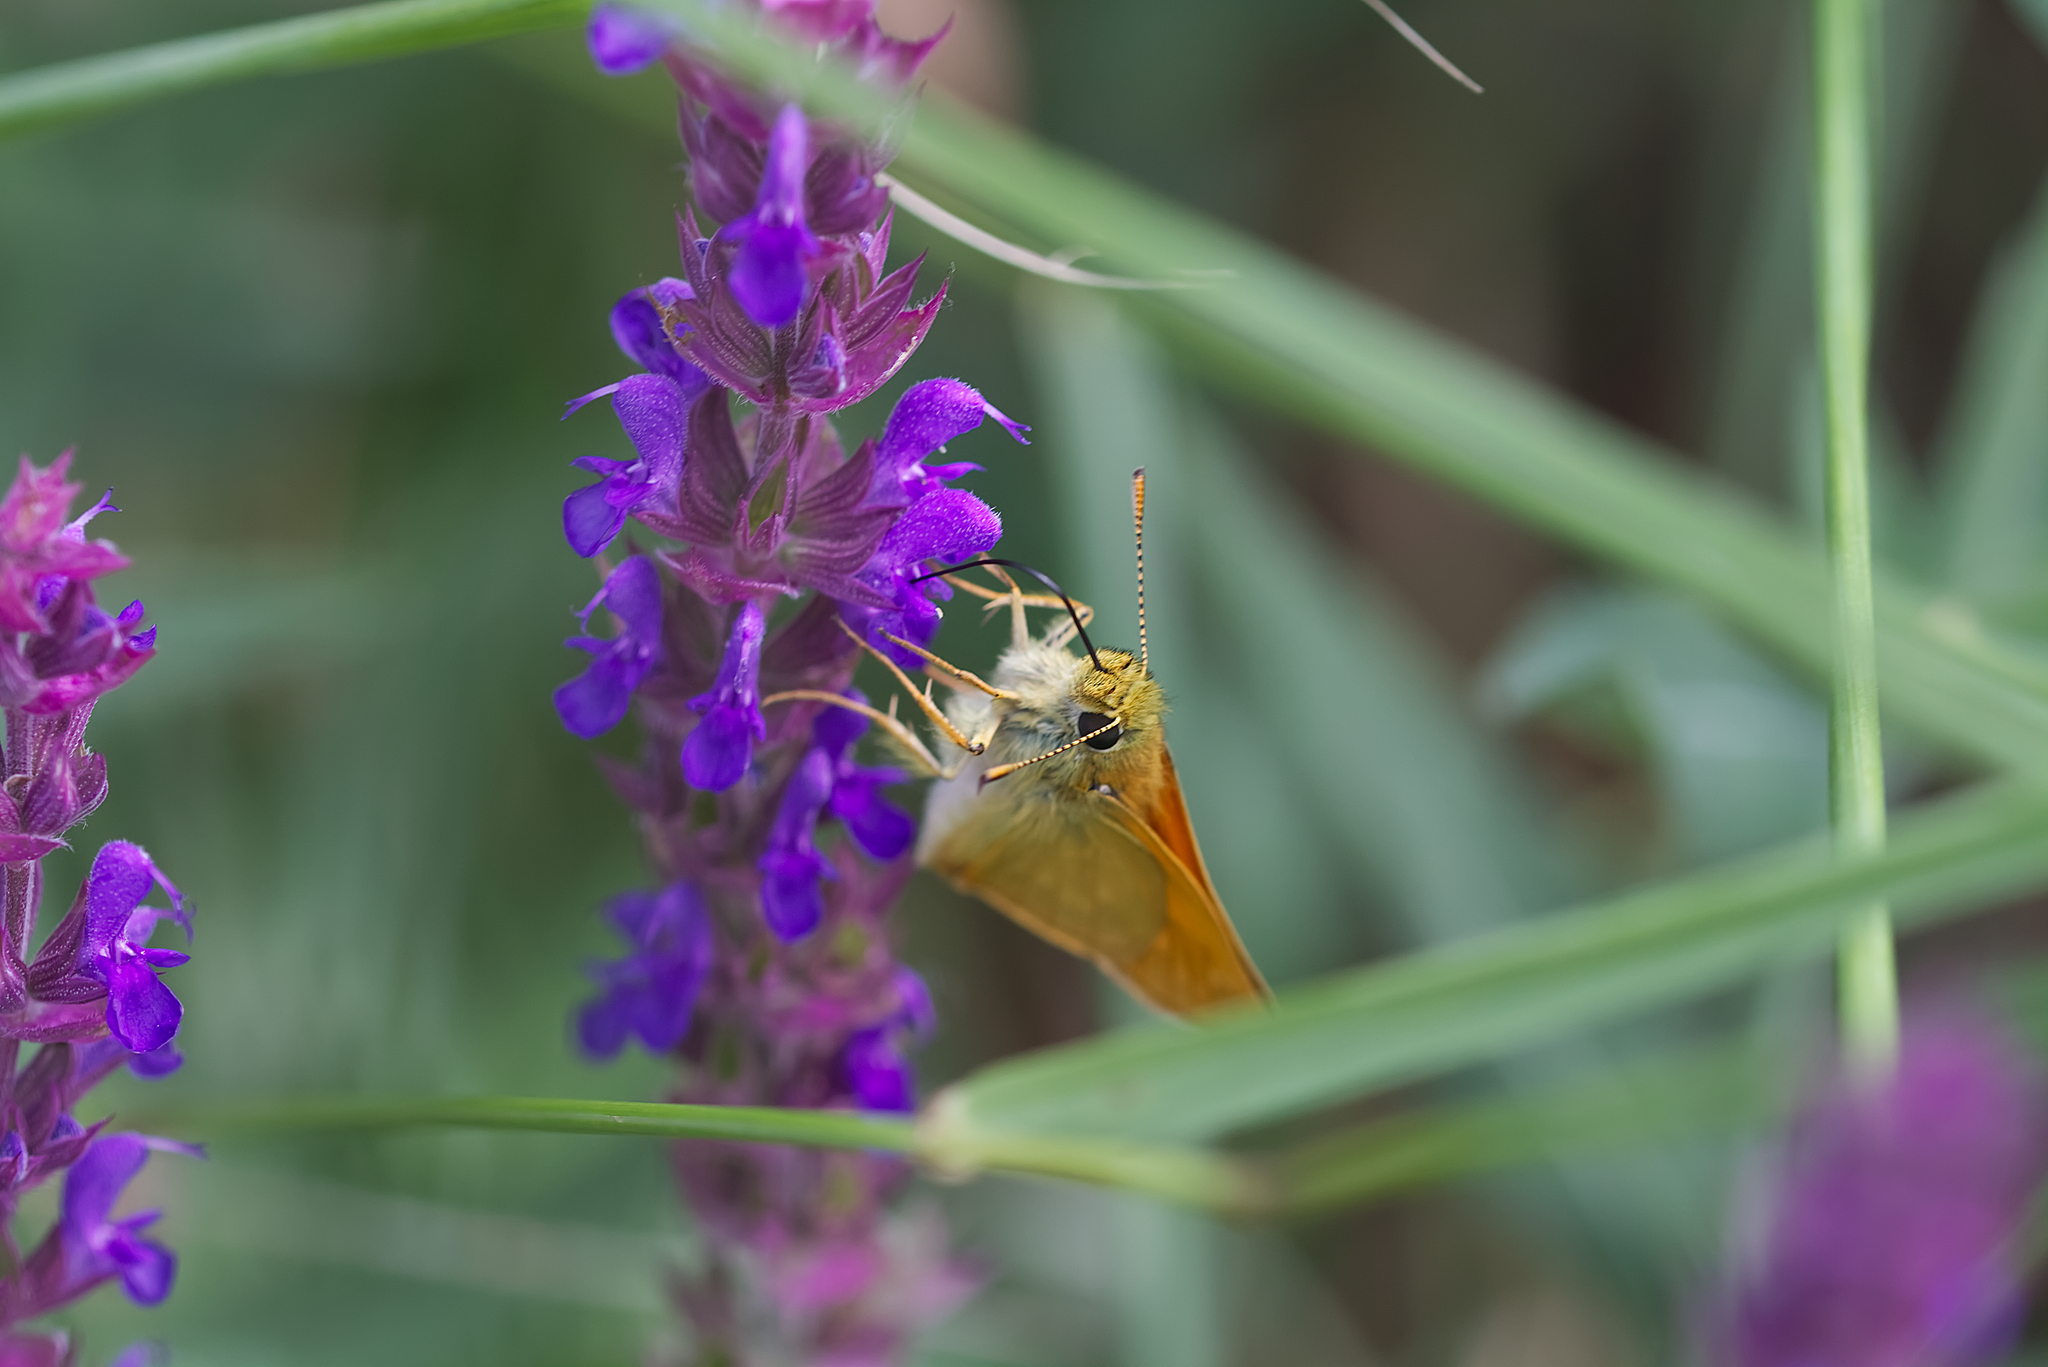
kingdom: Animalia
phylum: Arthropoda
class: Insecta
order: Lepidoptera
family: Hesperiidae
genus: Ochlodes
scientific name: Ochlodes venata
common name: Large skipper
